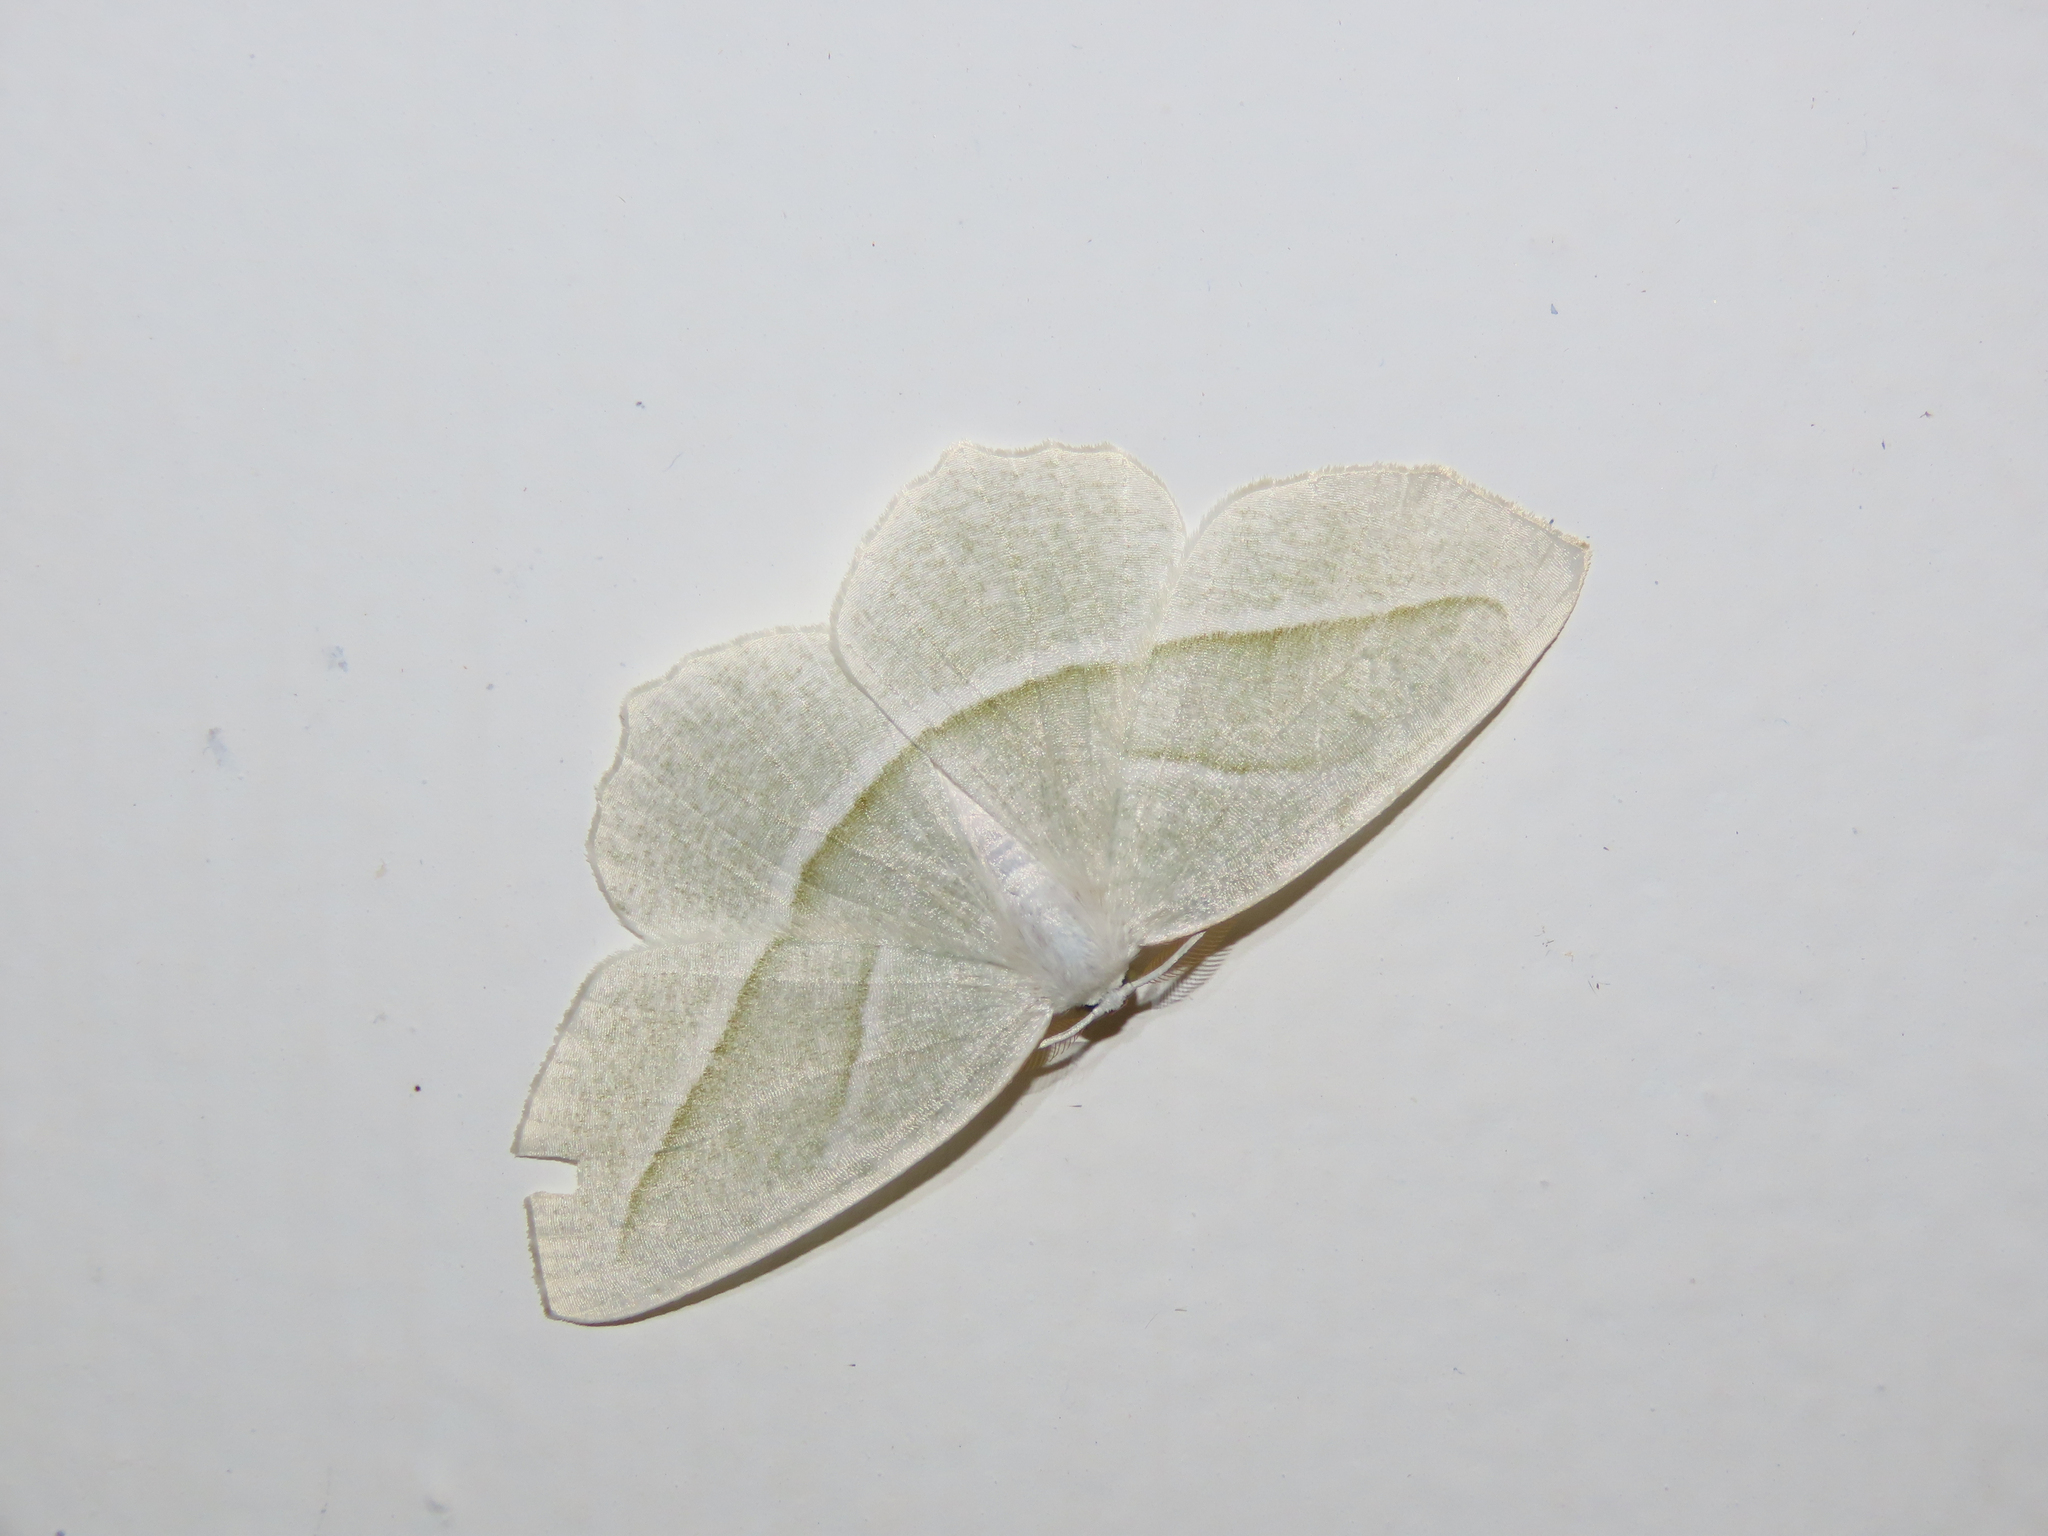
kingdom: Animalia
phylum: Arthropoda
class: Insecta
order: Lepidoptera
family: Geometridae
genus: Campaea
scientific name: Campaea perlata
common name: Fringed looper
